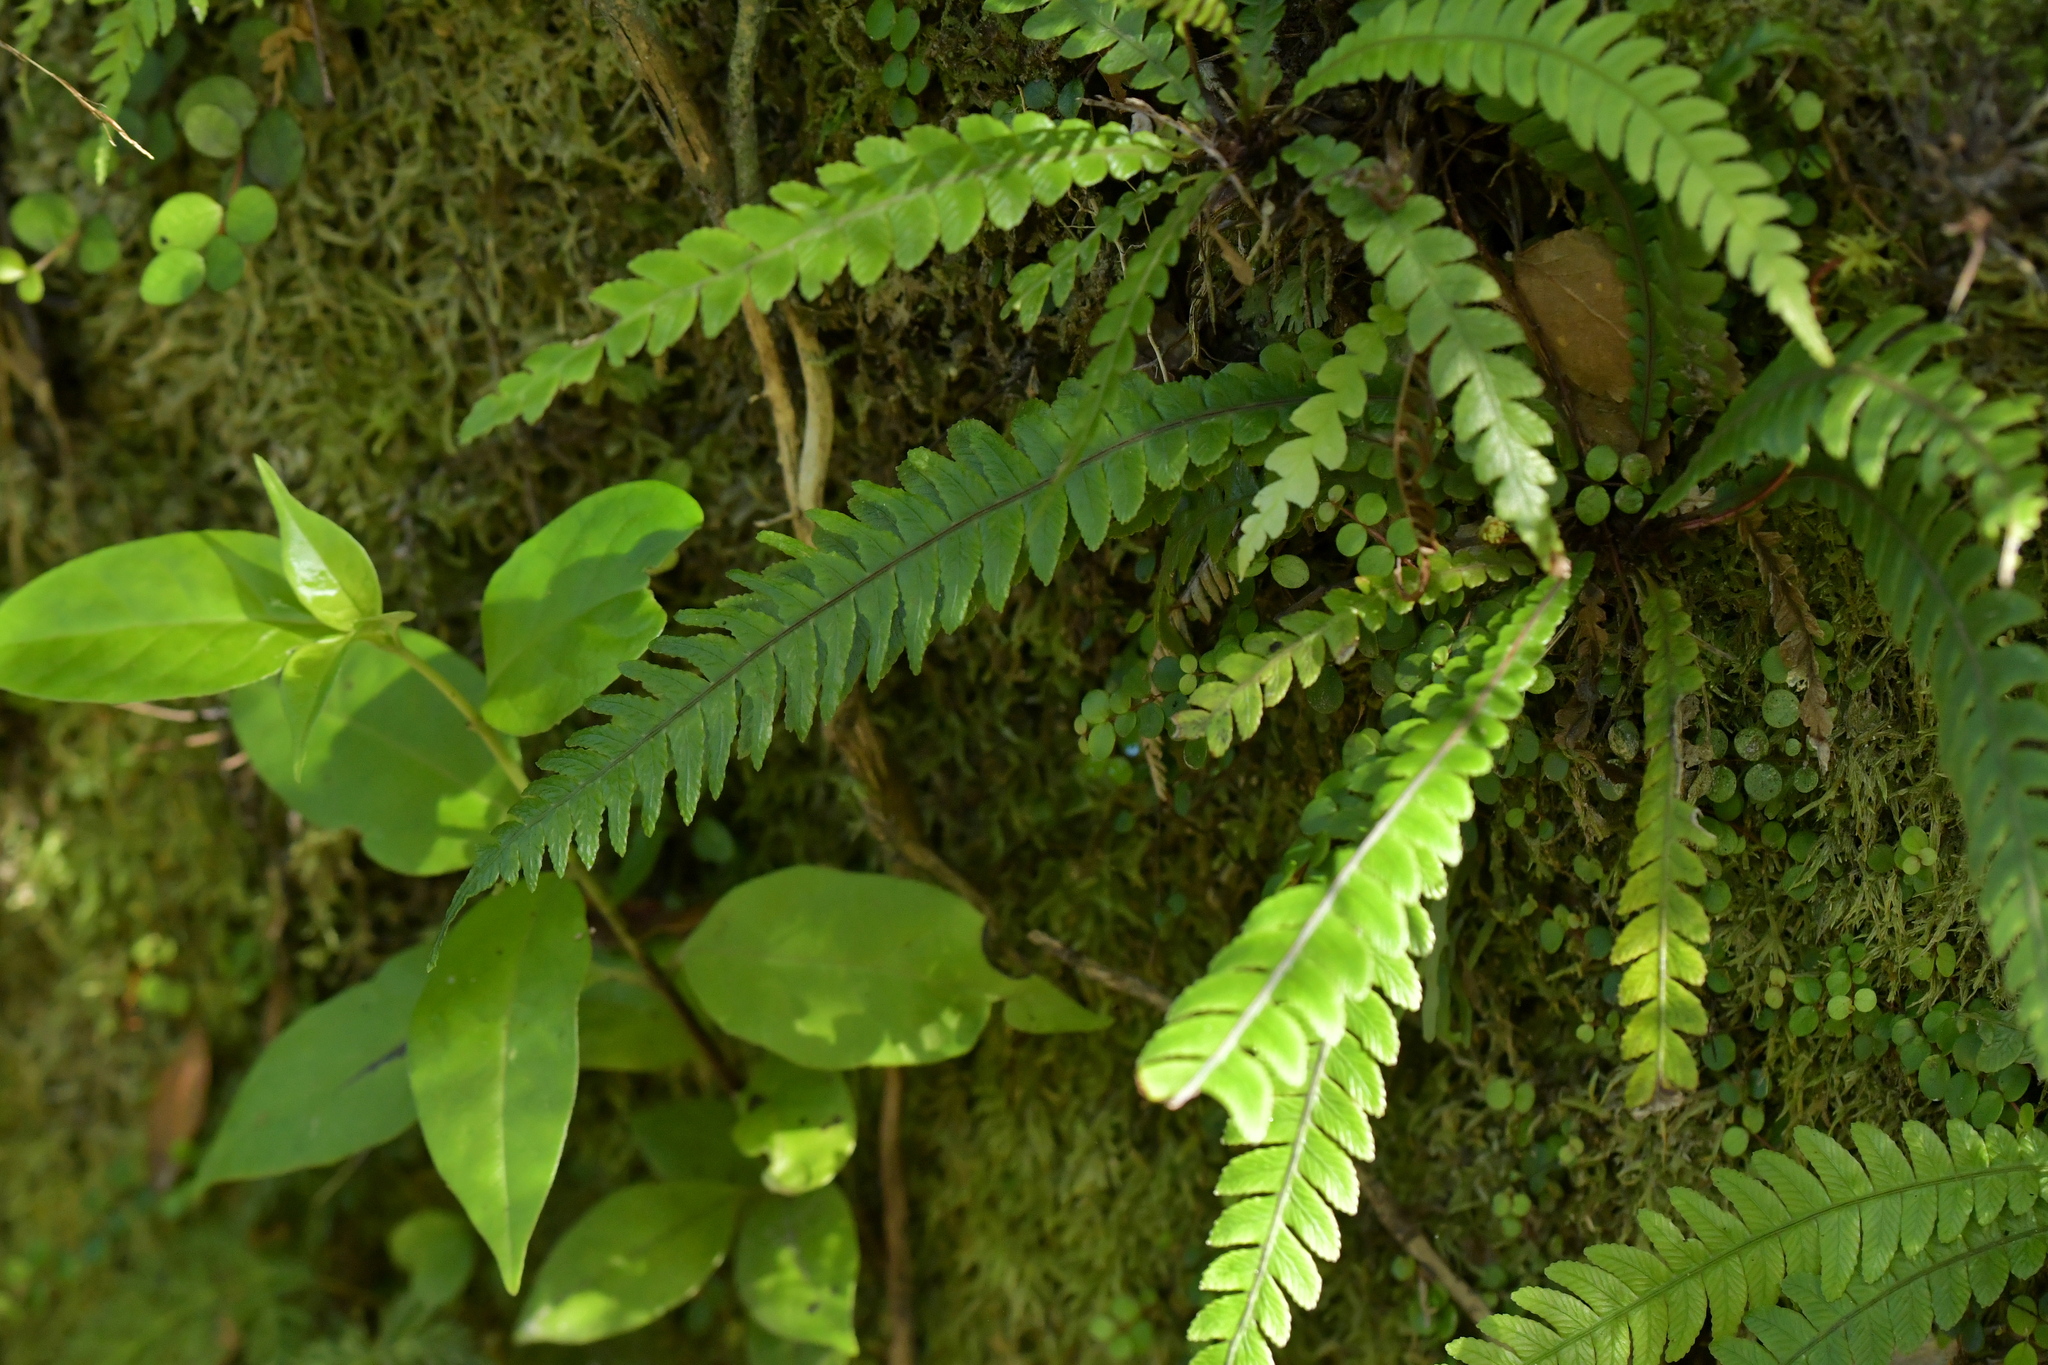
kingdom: Plantae
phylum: Tracheophyta
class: Polypodiopsida
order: Polypodiales
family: Blechnaceae
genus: Austroblechnum
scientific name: Austroblechnum lanceolatum
